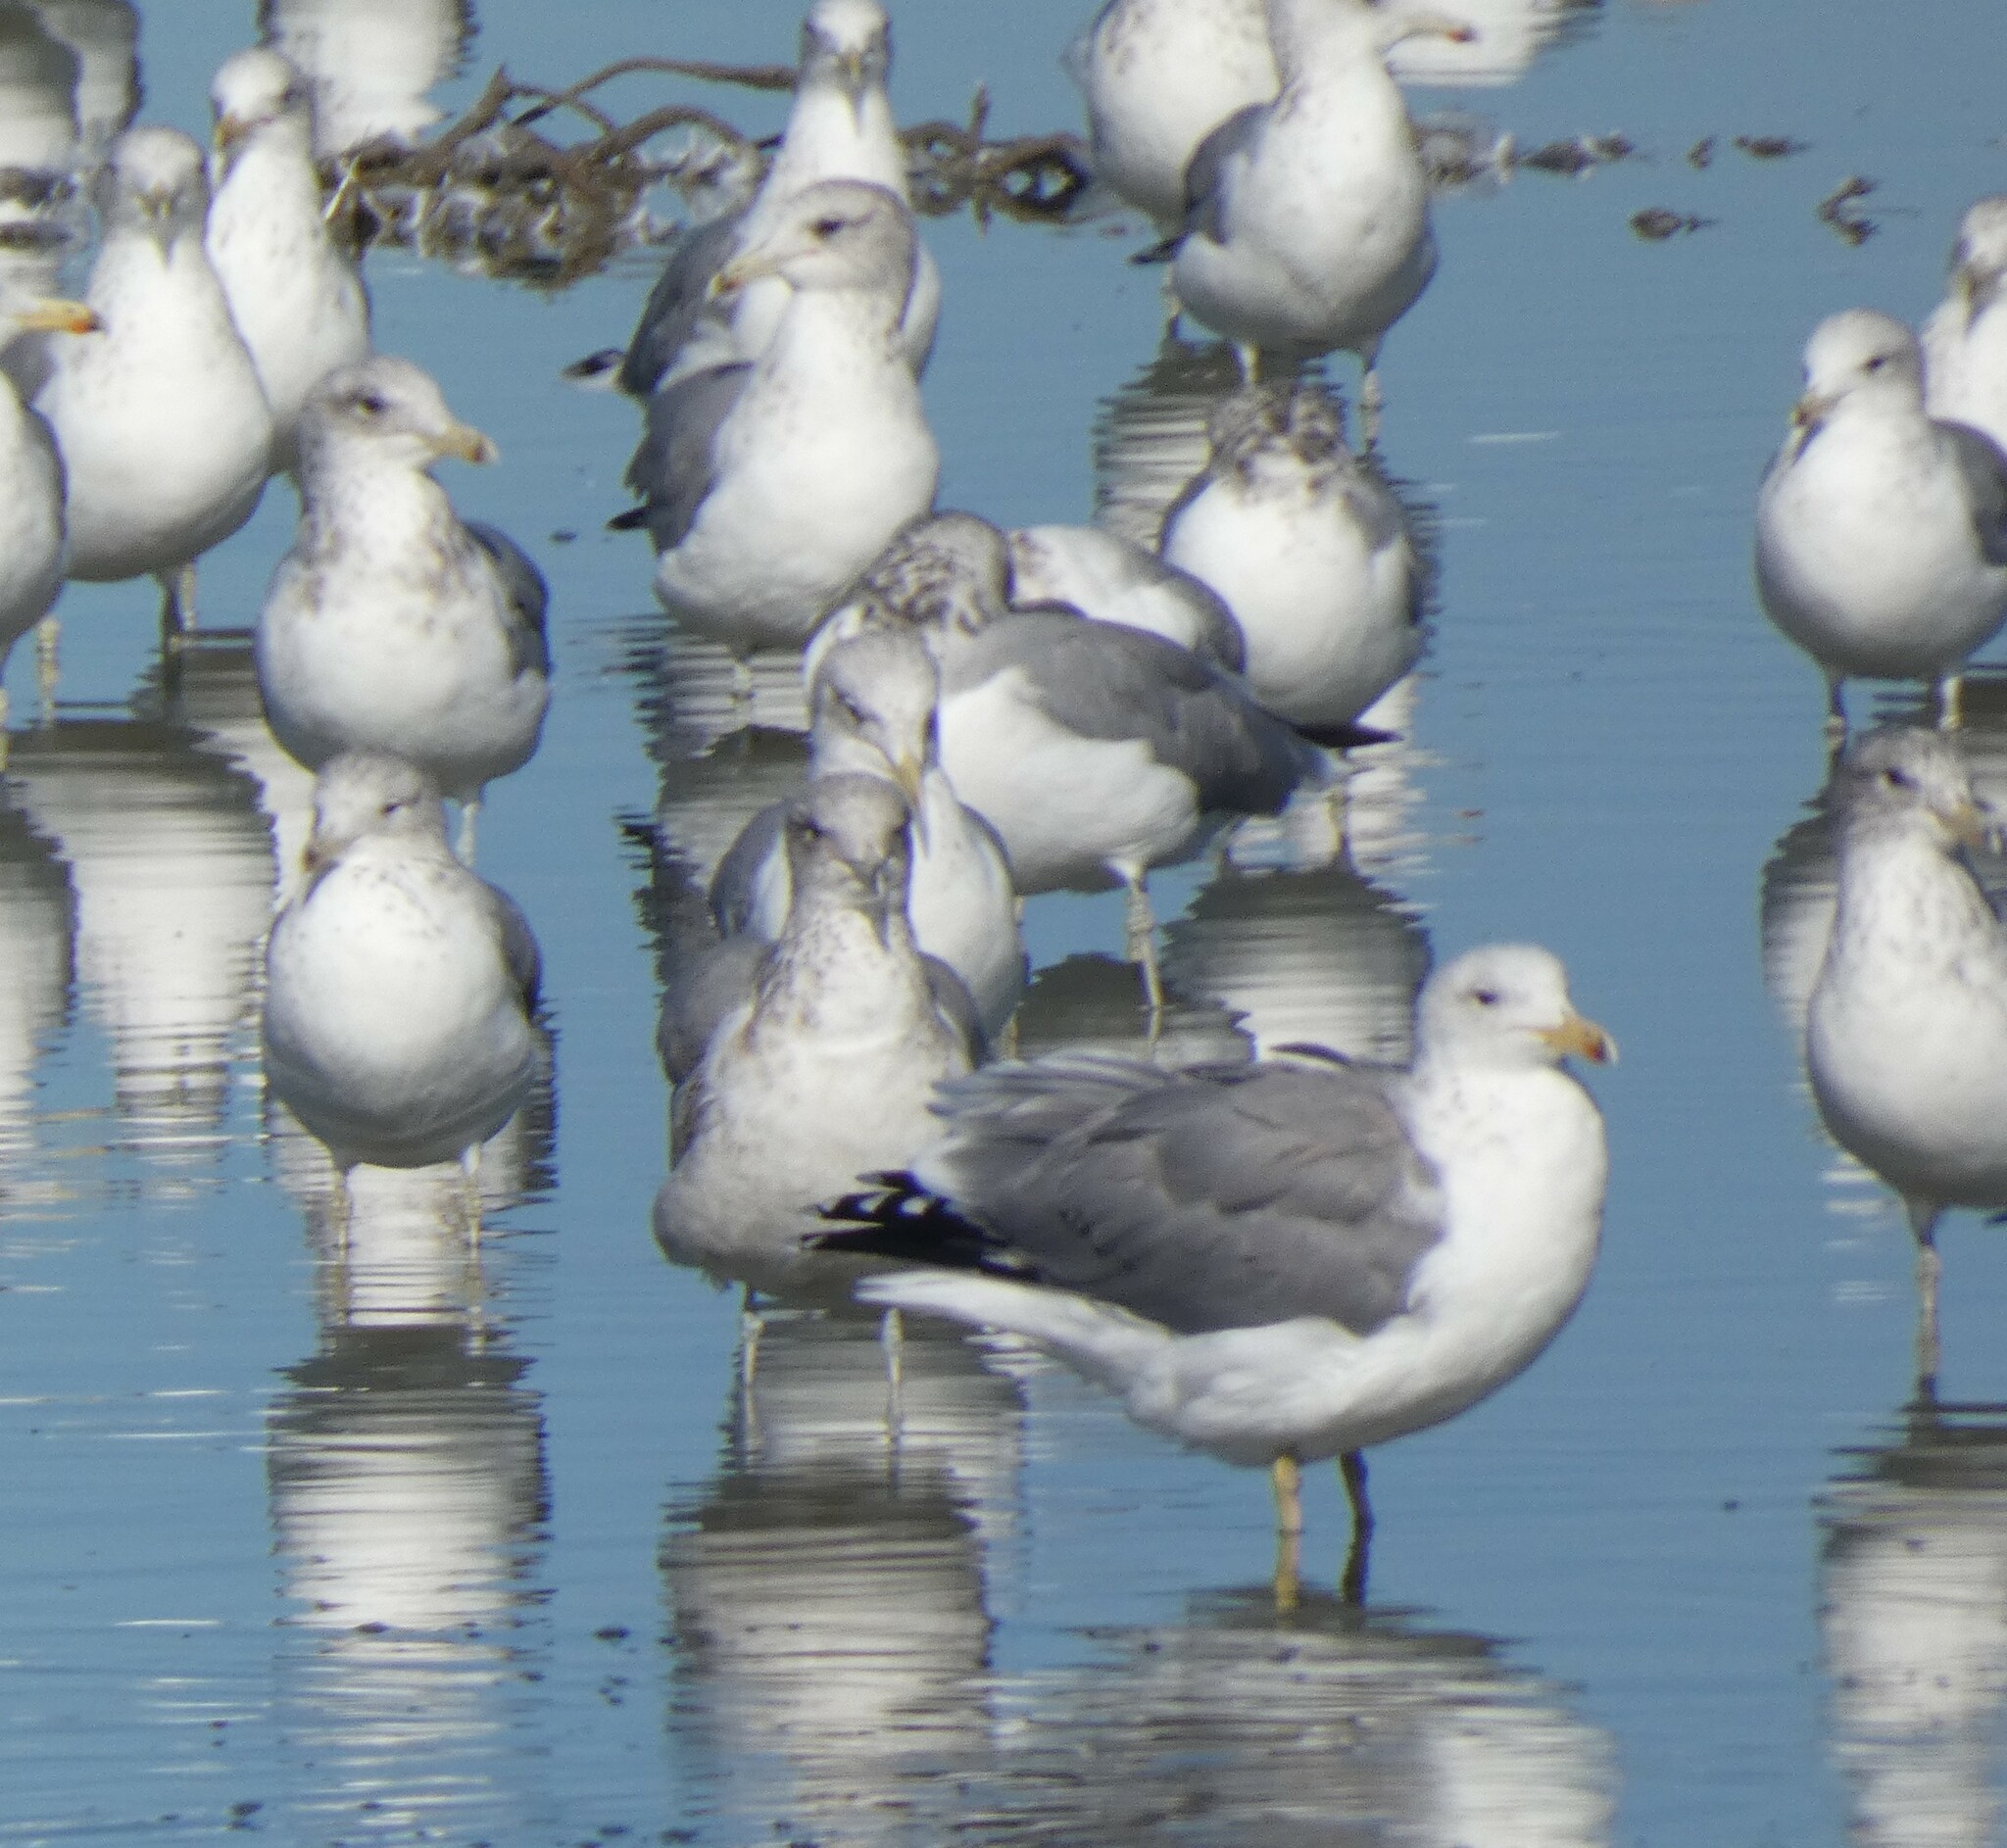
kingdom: Animalia
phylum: Chordata
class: Aves
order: Charadriiformes
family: Laridae
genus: Larus
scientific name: Larus californicus
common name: California gull
